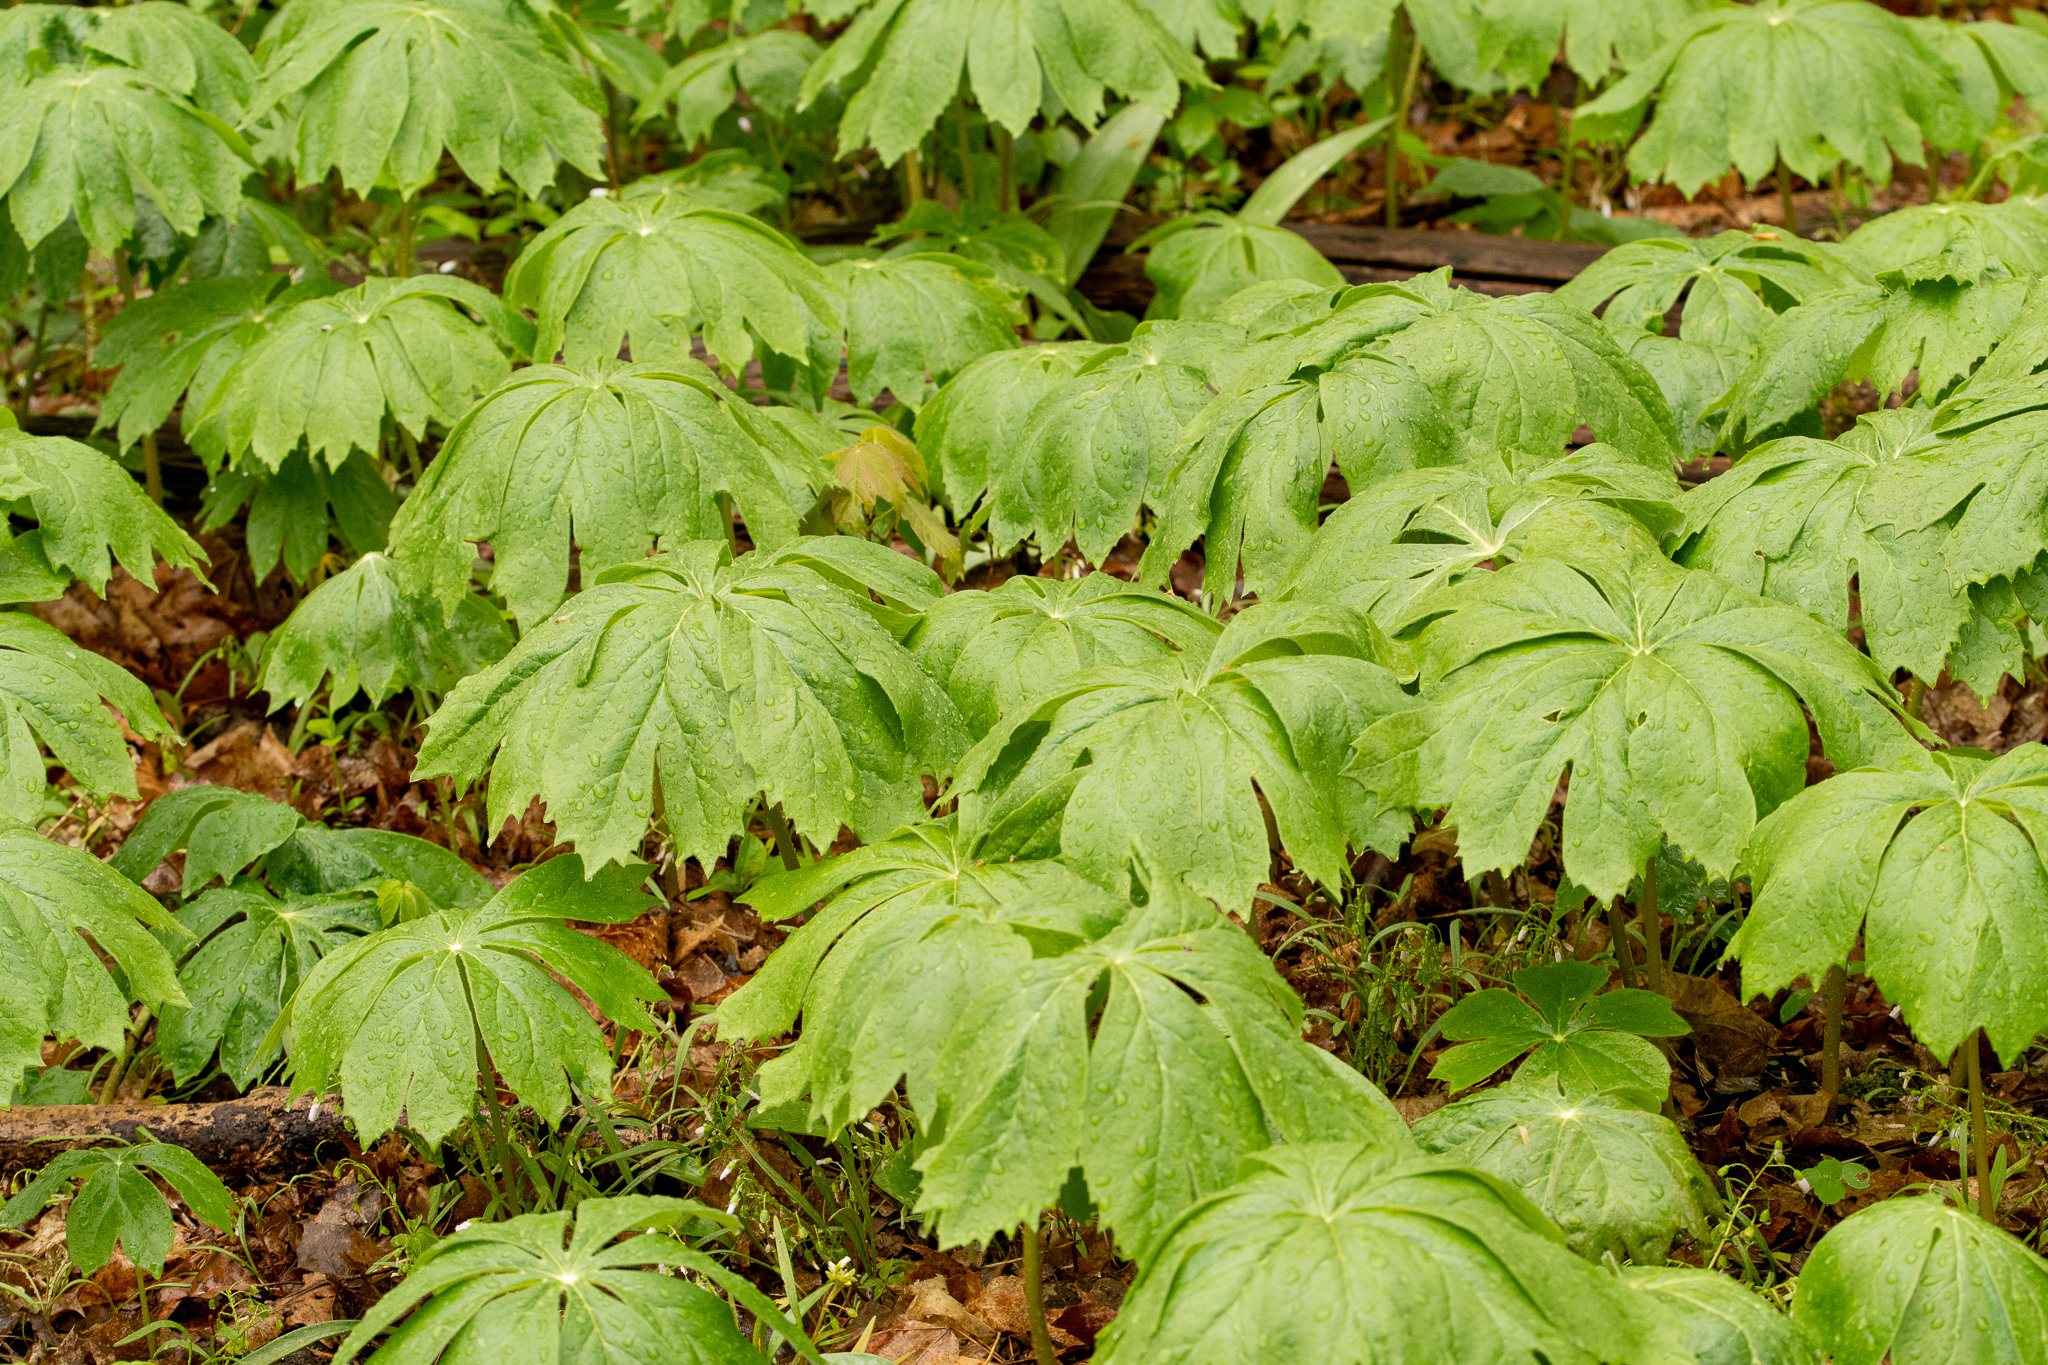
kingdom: Plantae
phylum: Tracheophyta
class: Magnoliopsida
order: Ranunculales
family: Berberidaceae
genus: Podophyllum
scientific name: Podophyllum peltatum
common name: Wild mandrake
